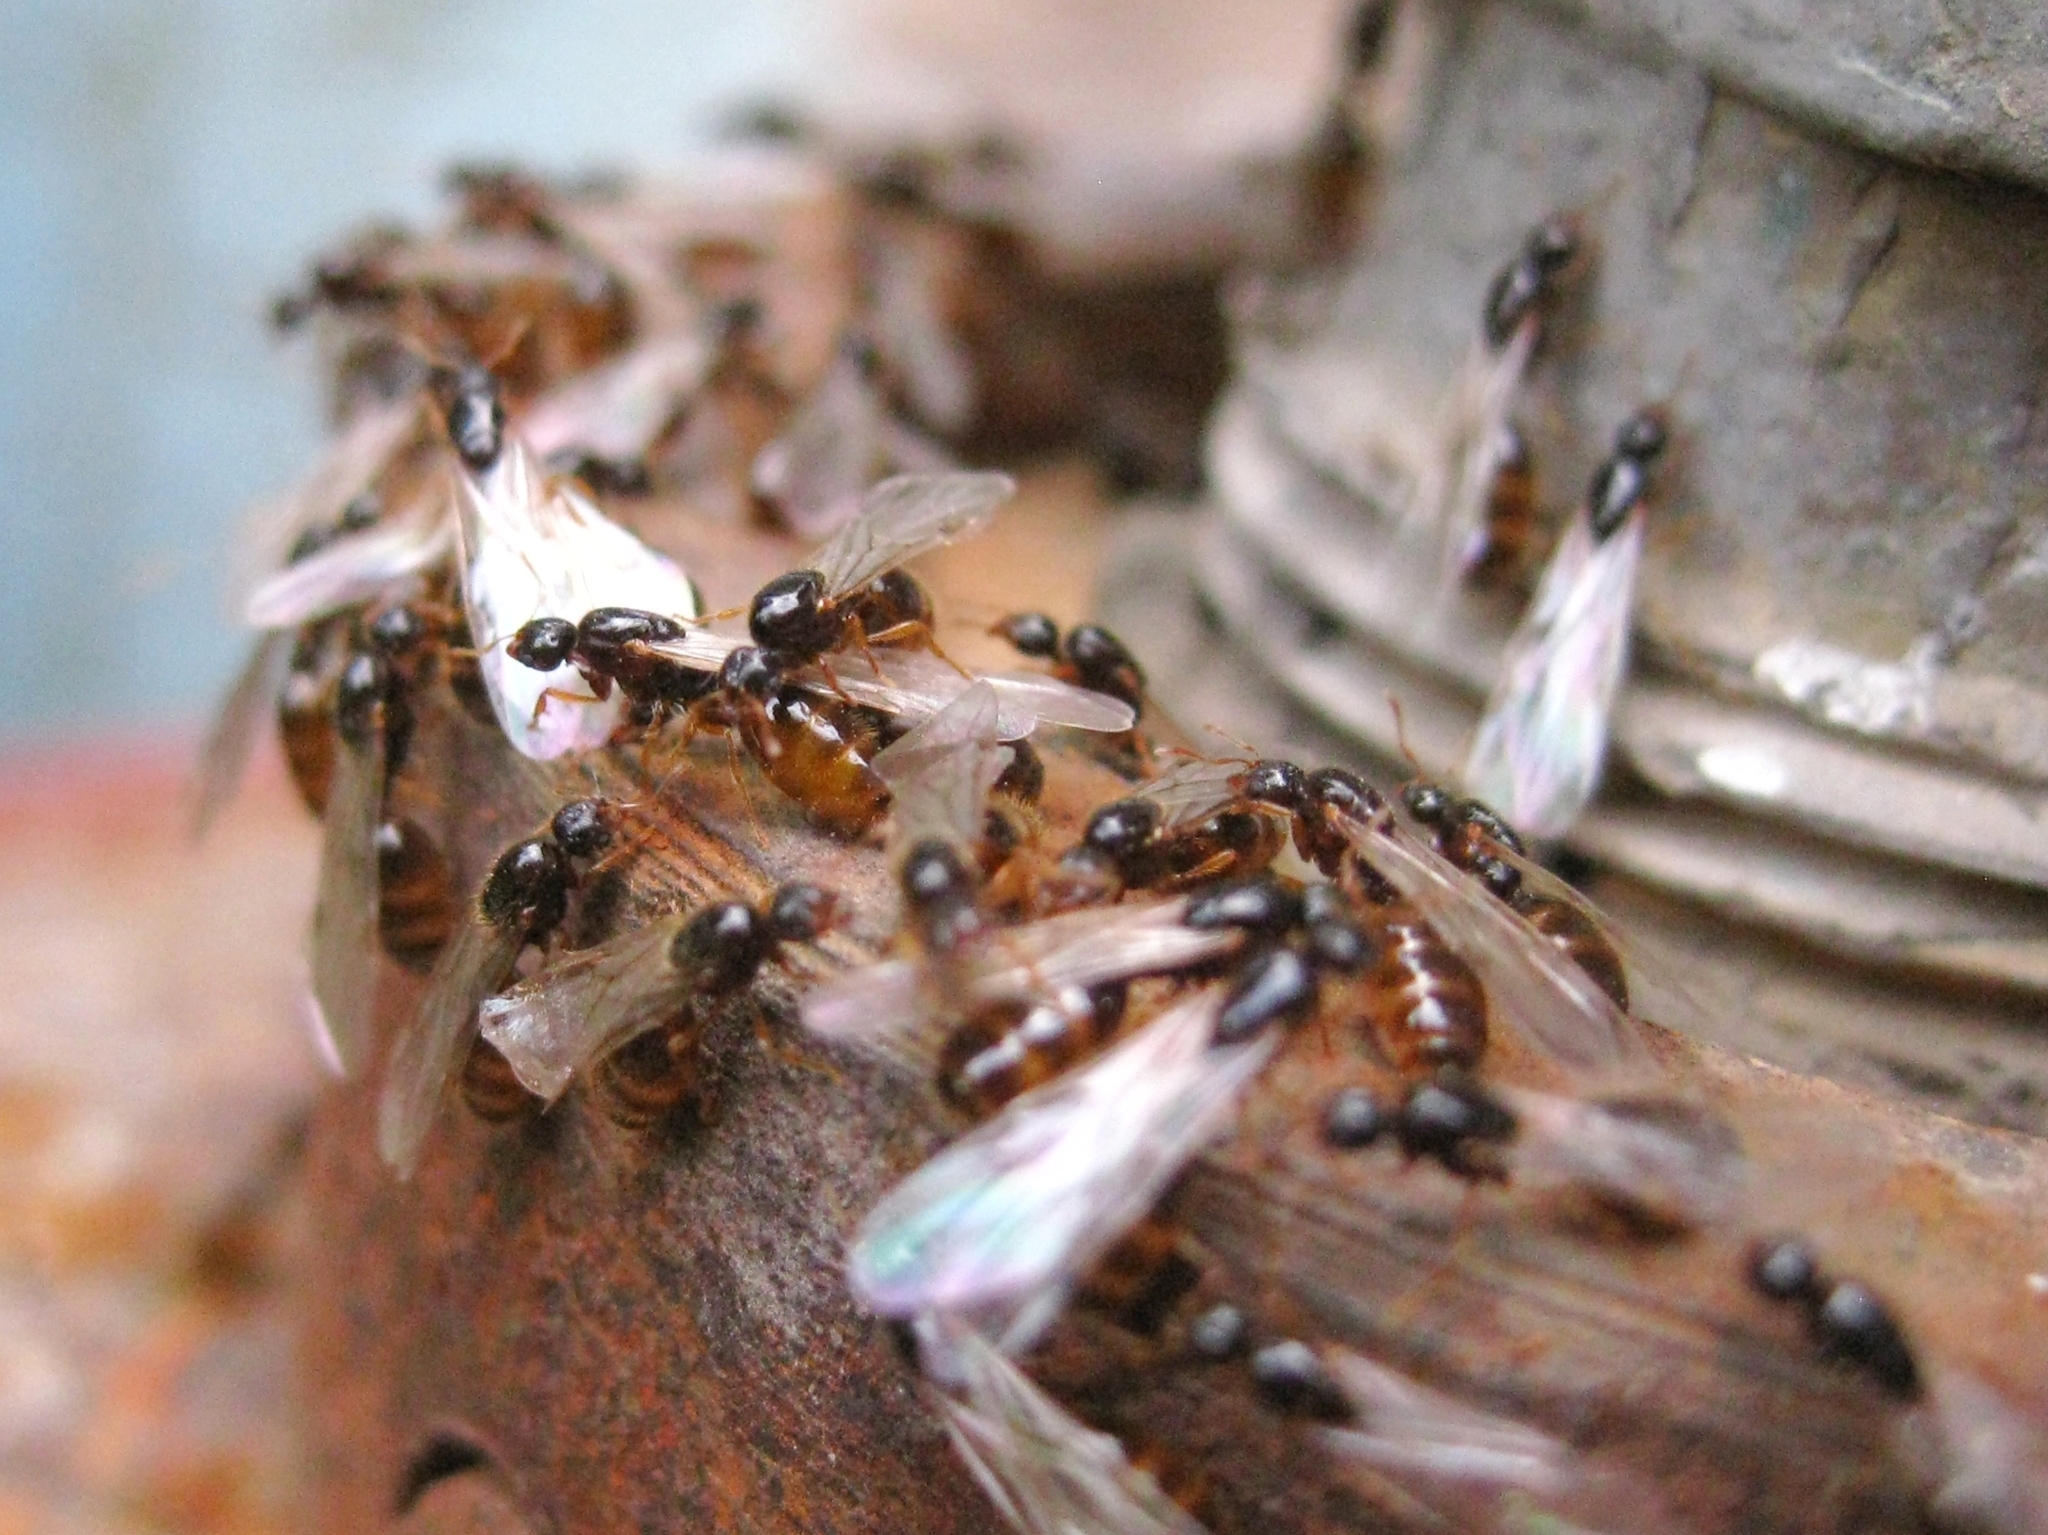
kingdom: Animalia
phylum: Arthropoda
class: Insecta
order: Hymenoptera
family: Formicidae
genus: Solenopsis
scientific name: Solenopsis
